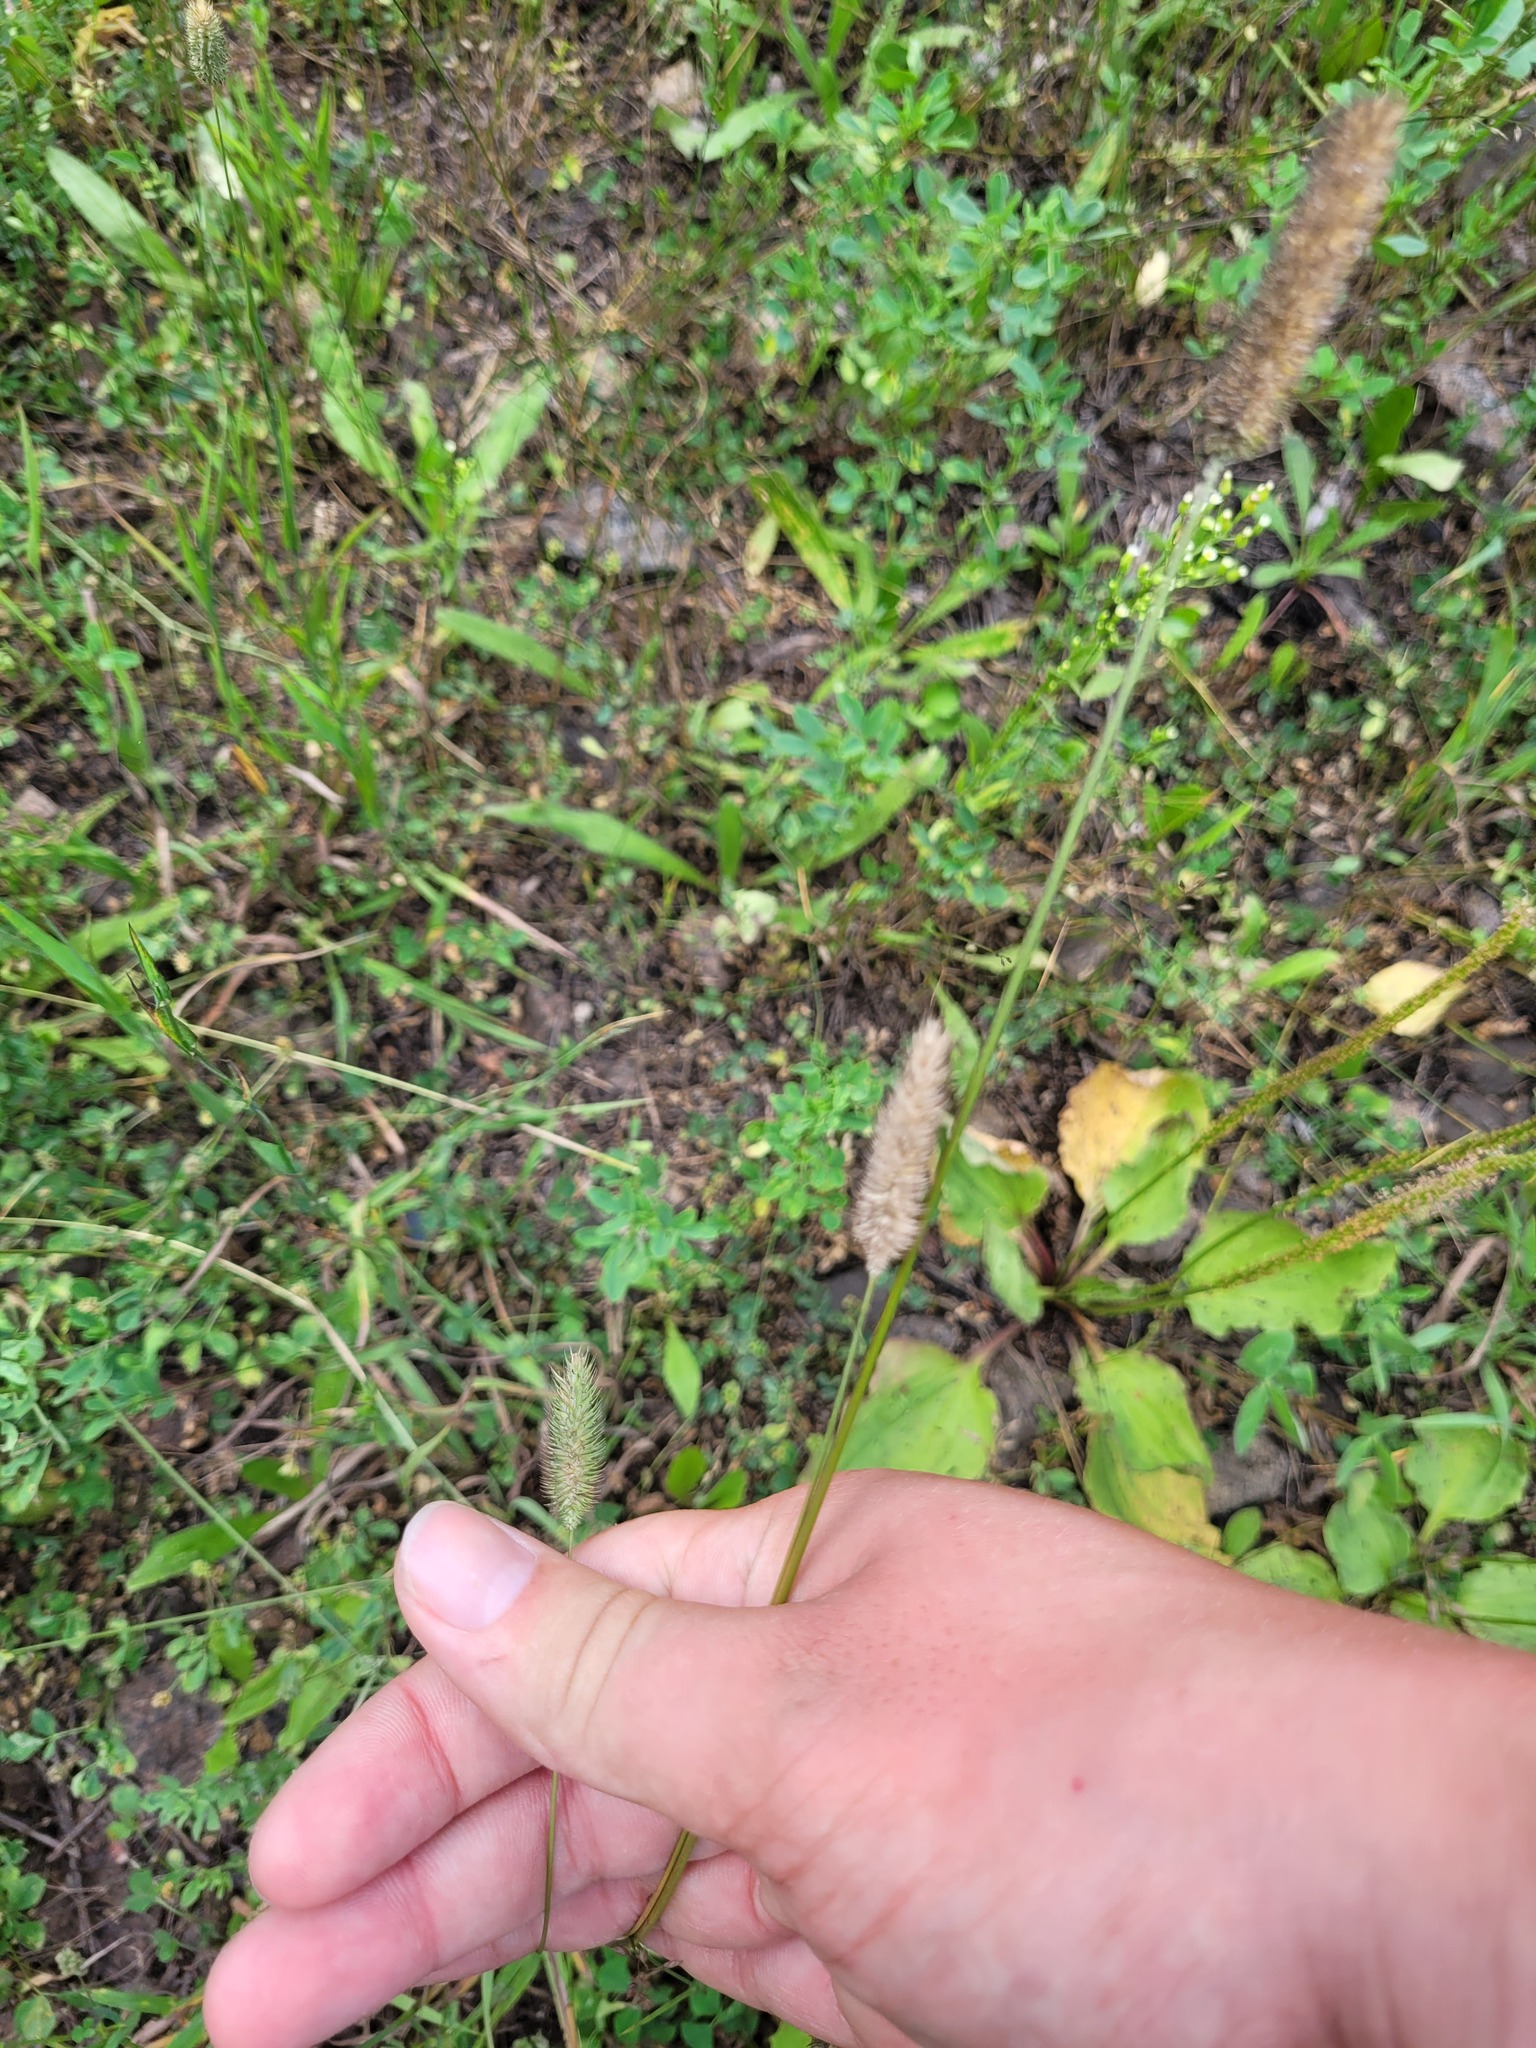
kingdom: Plantae
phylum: Tracheophyta
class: Liliopsida
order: Poales
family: Poaceae
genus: Phleum
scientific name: Phleum pratense
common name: Timothy grass
